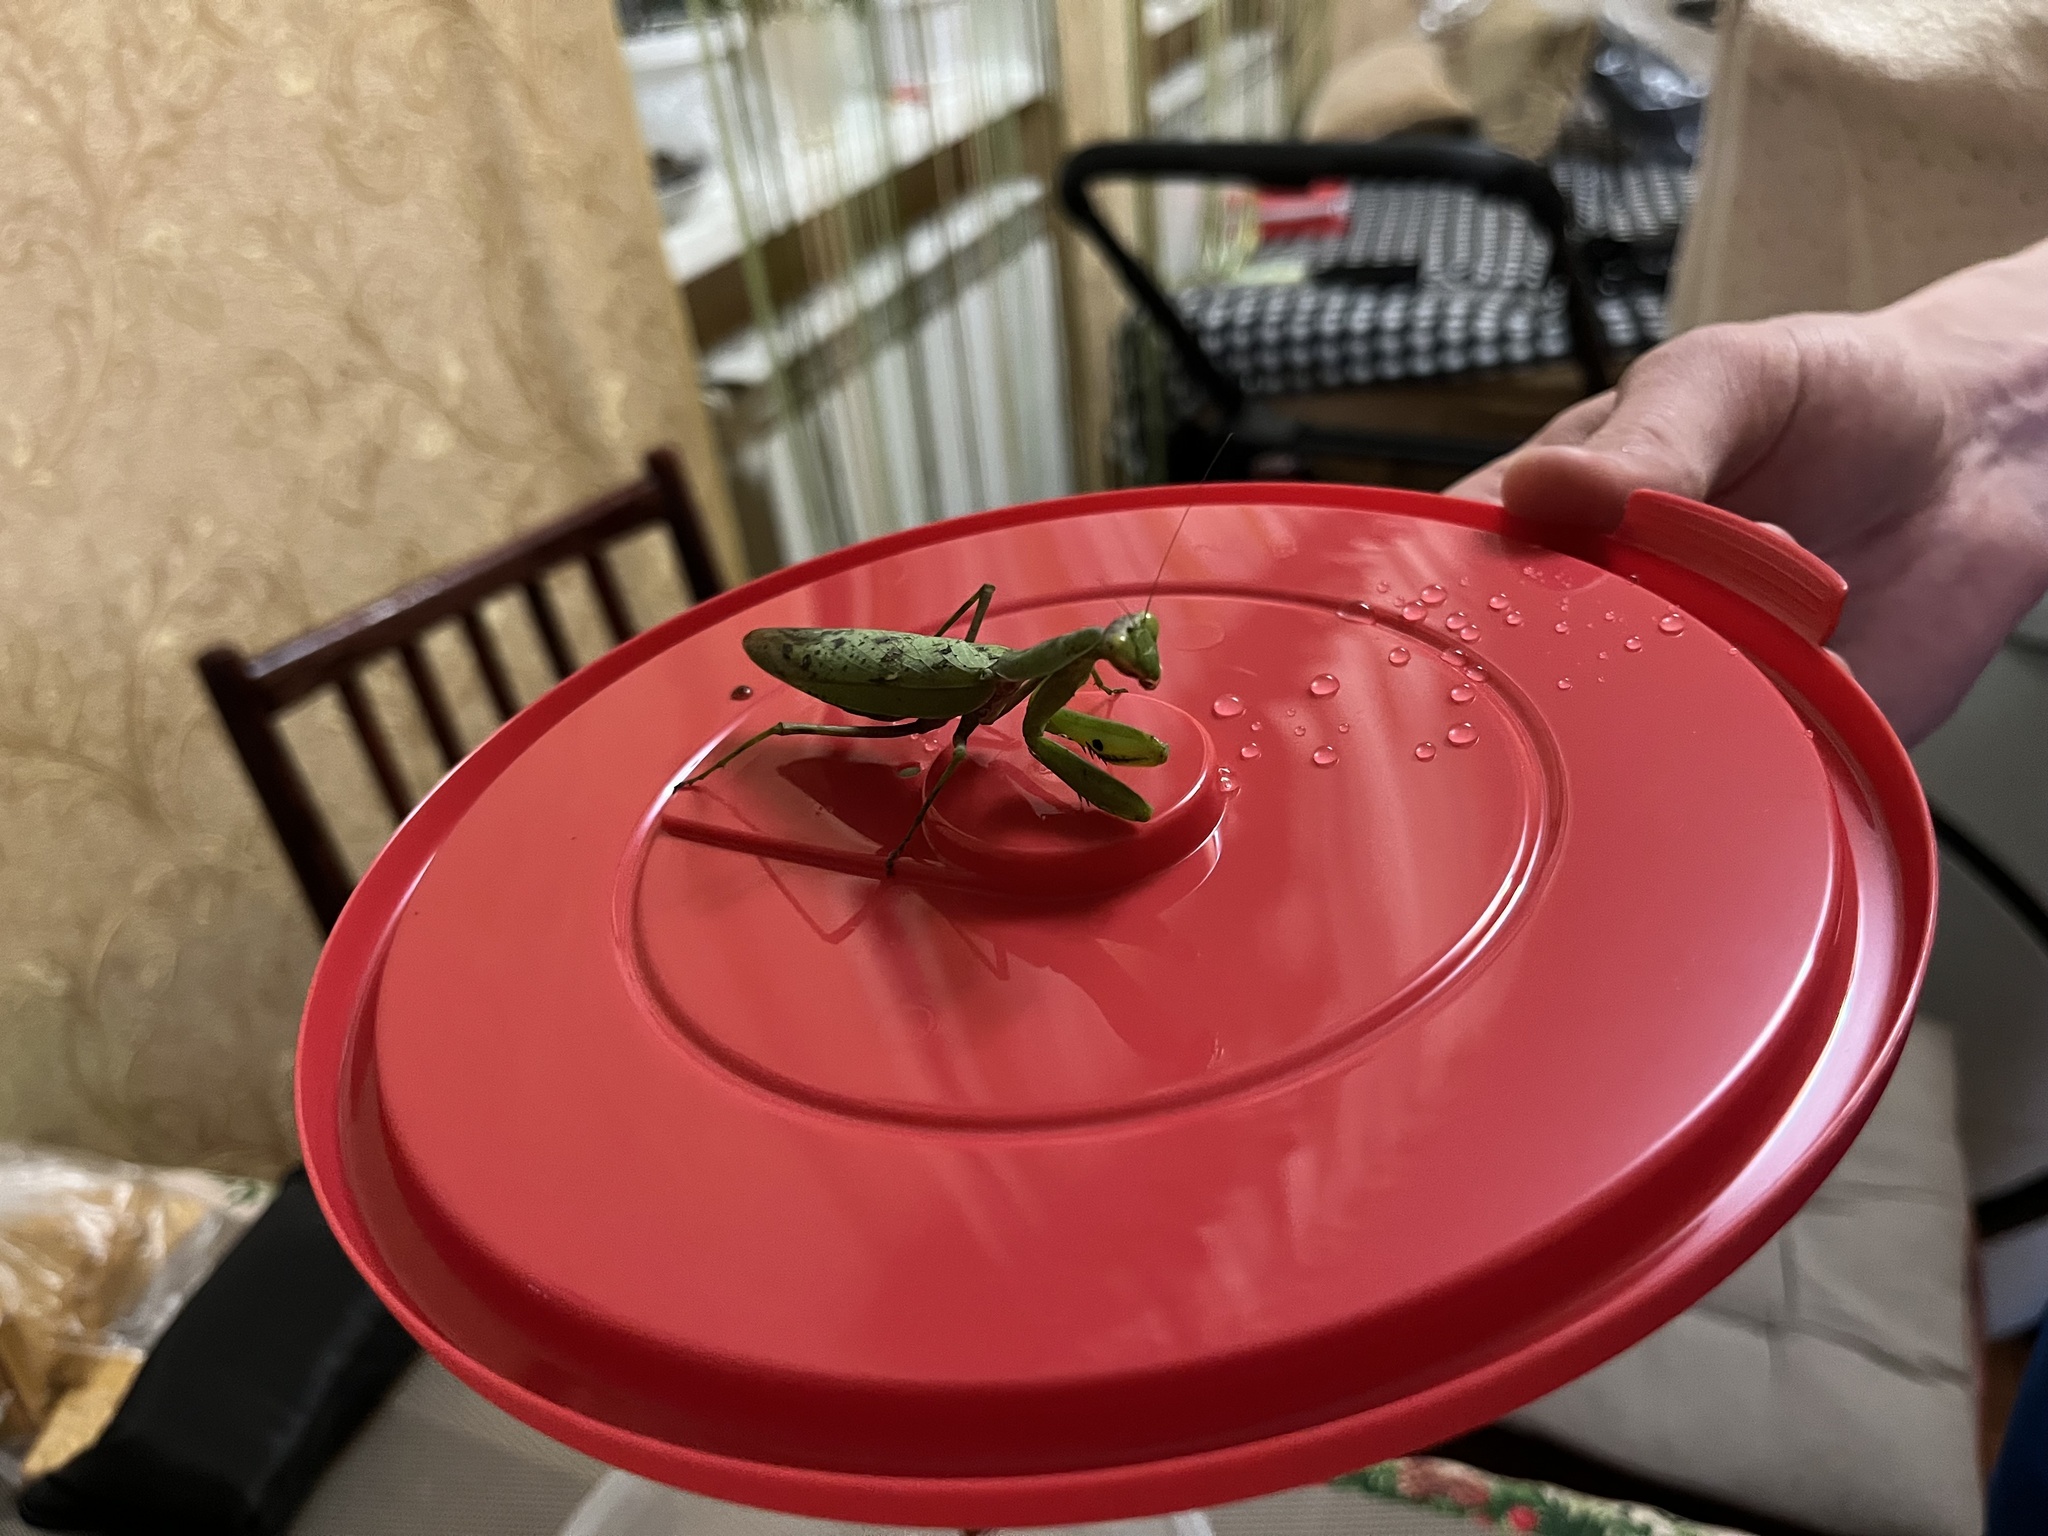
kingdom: Animalia
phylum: Arthropoda
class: Insecta
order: Mantodea
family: Mantidae
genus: Hierodula
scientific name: Hierodula transcaucasica
